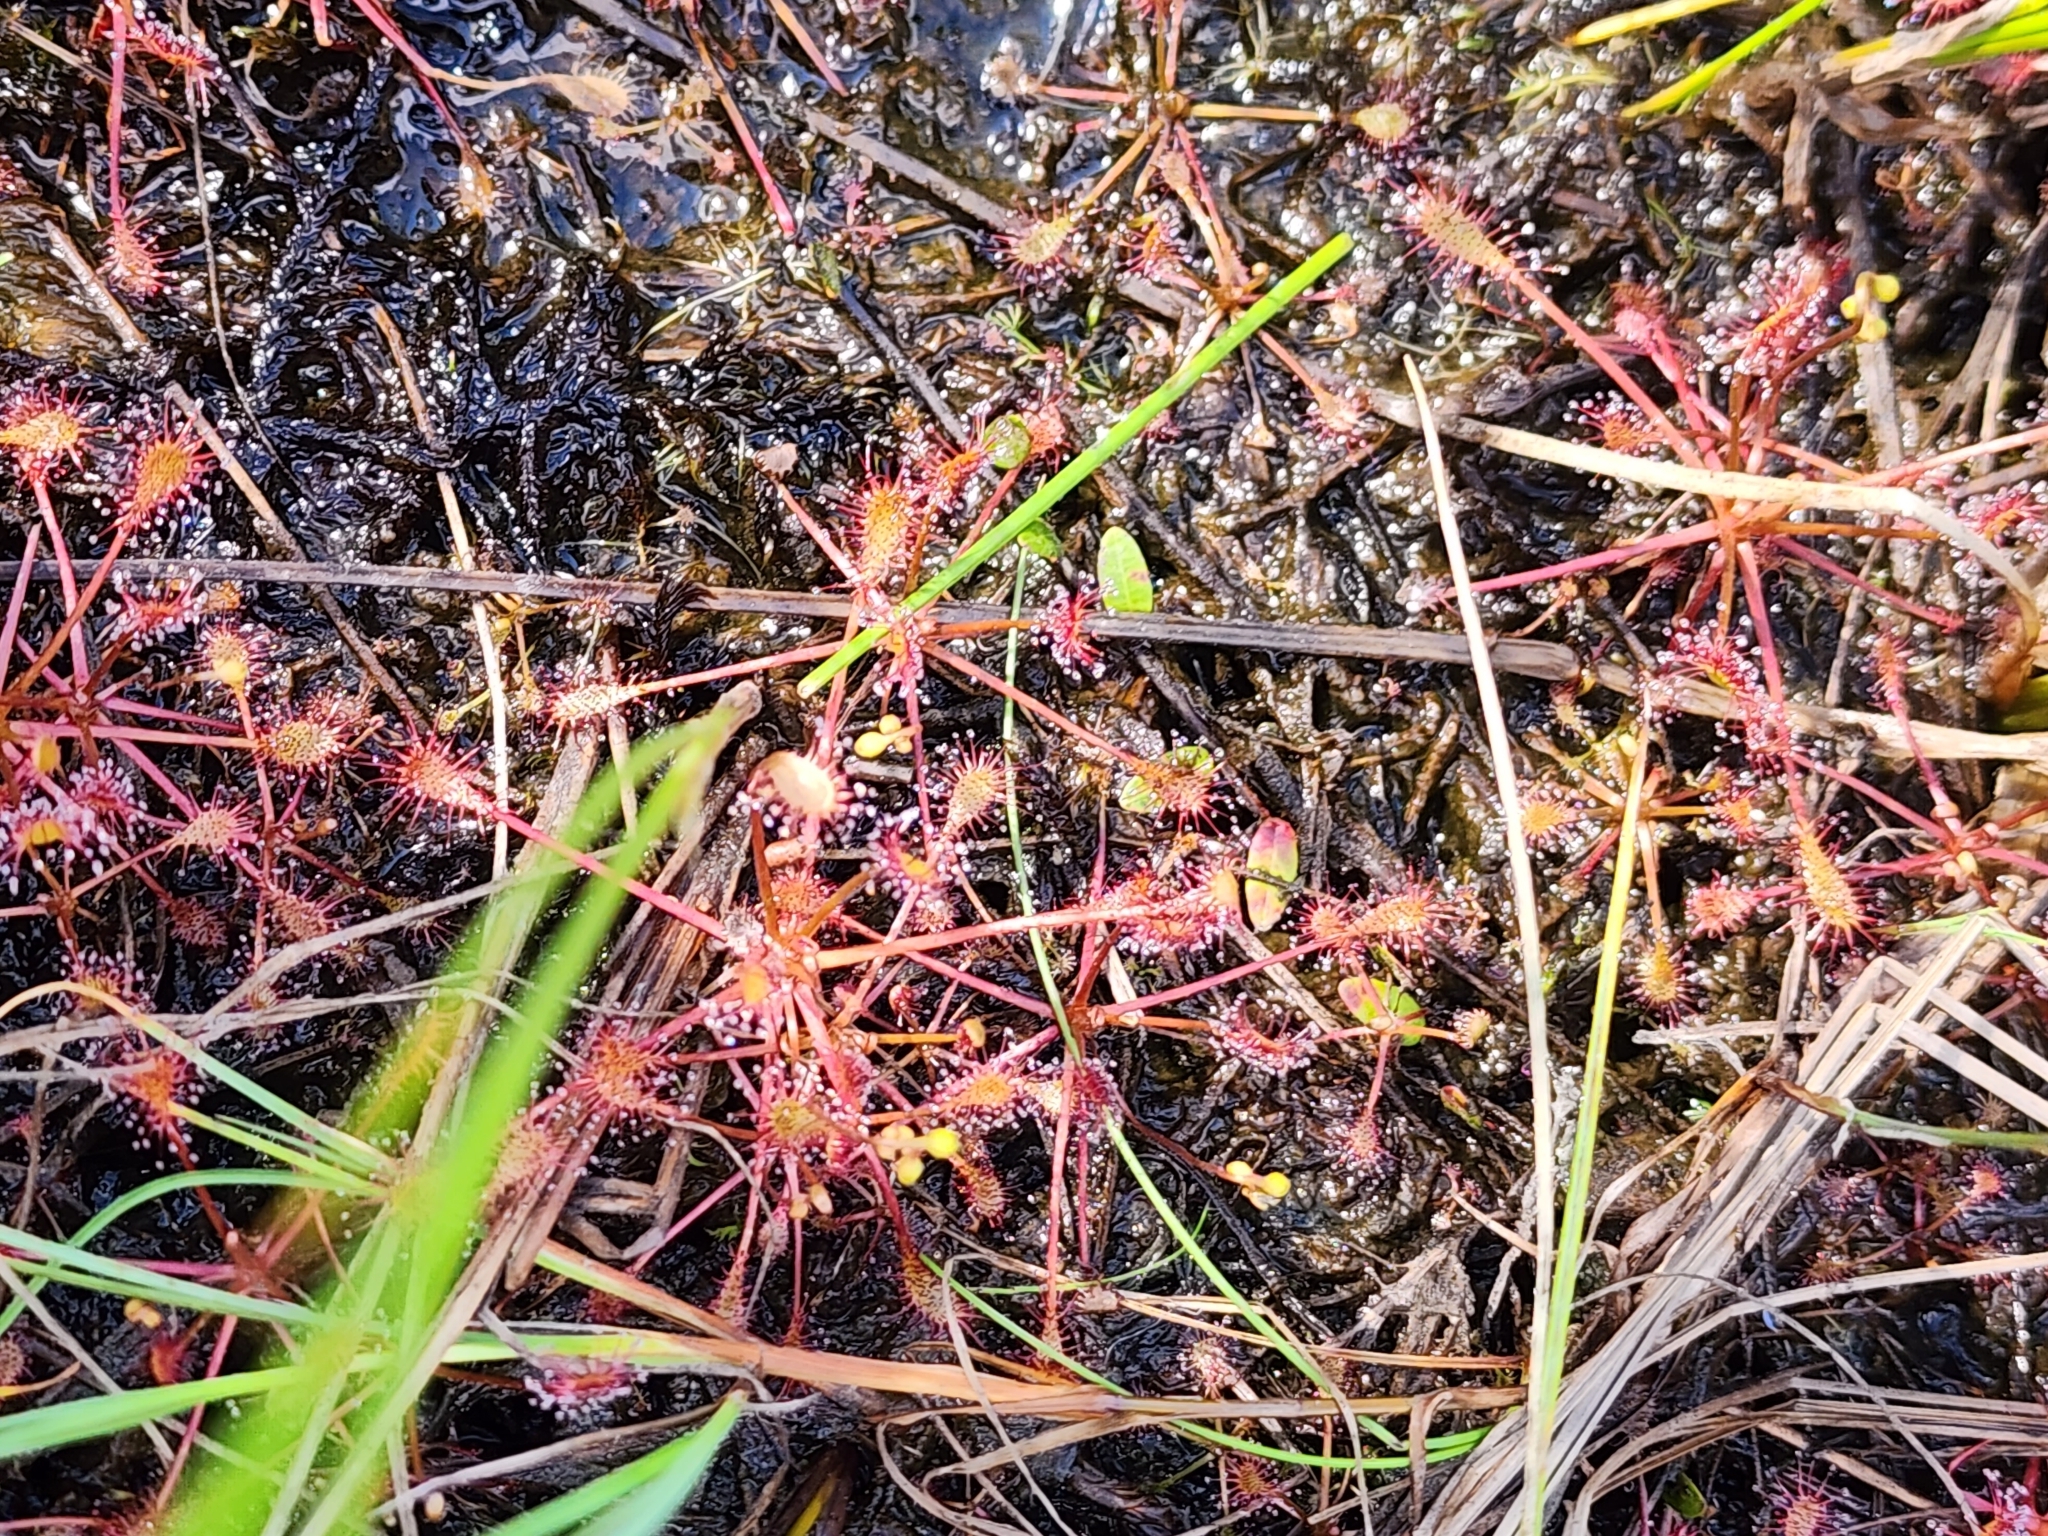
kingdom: Plantae
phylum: Tracheophyta
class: Magnoliopsida
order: Caryophyllales
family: Droseraceae
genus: Drosera
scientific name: Drosera intermedia
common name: Oblong-leaved sundew
